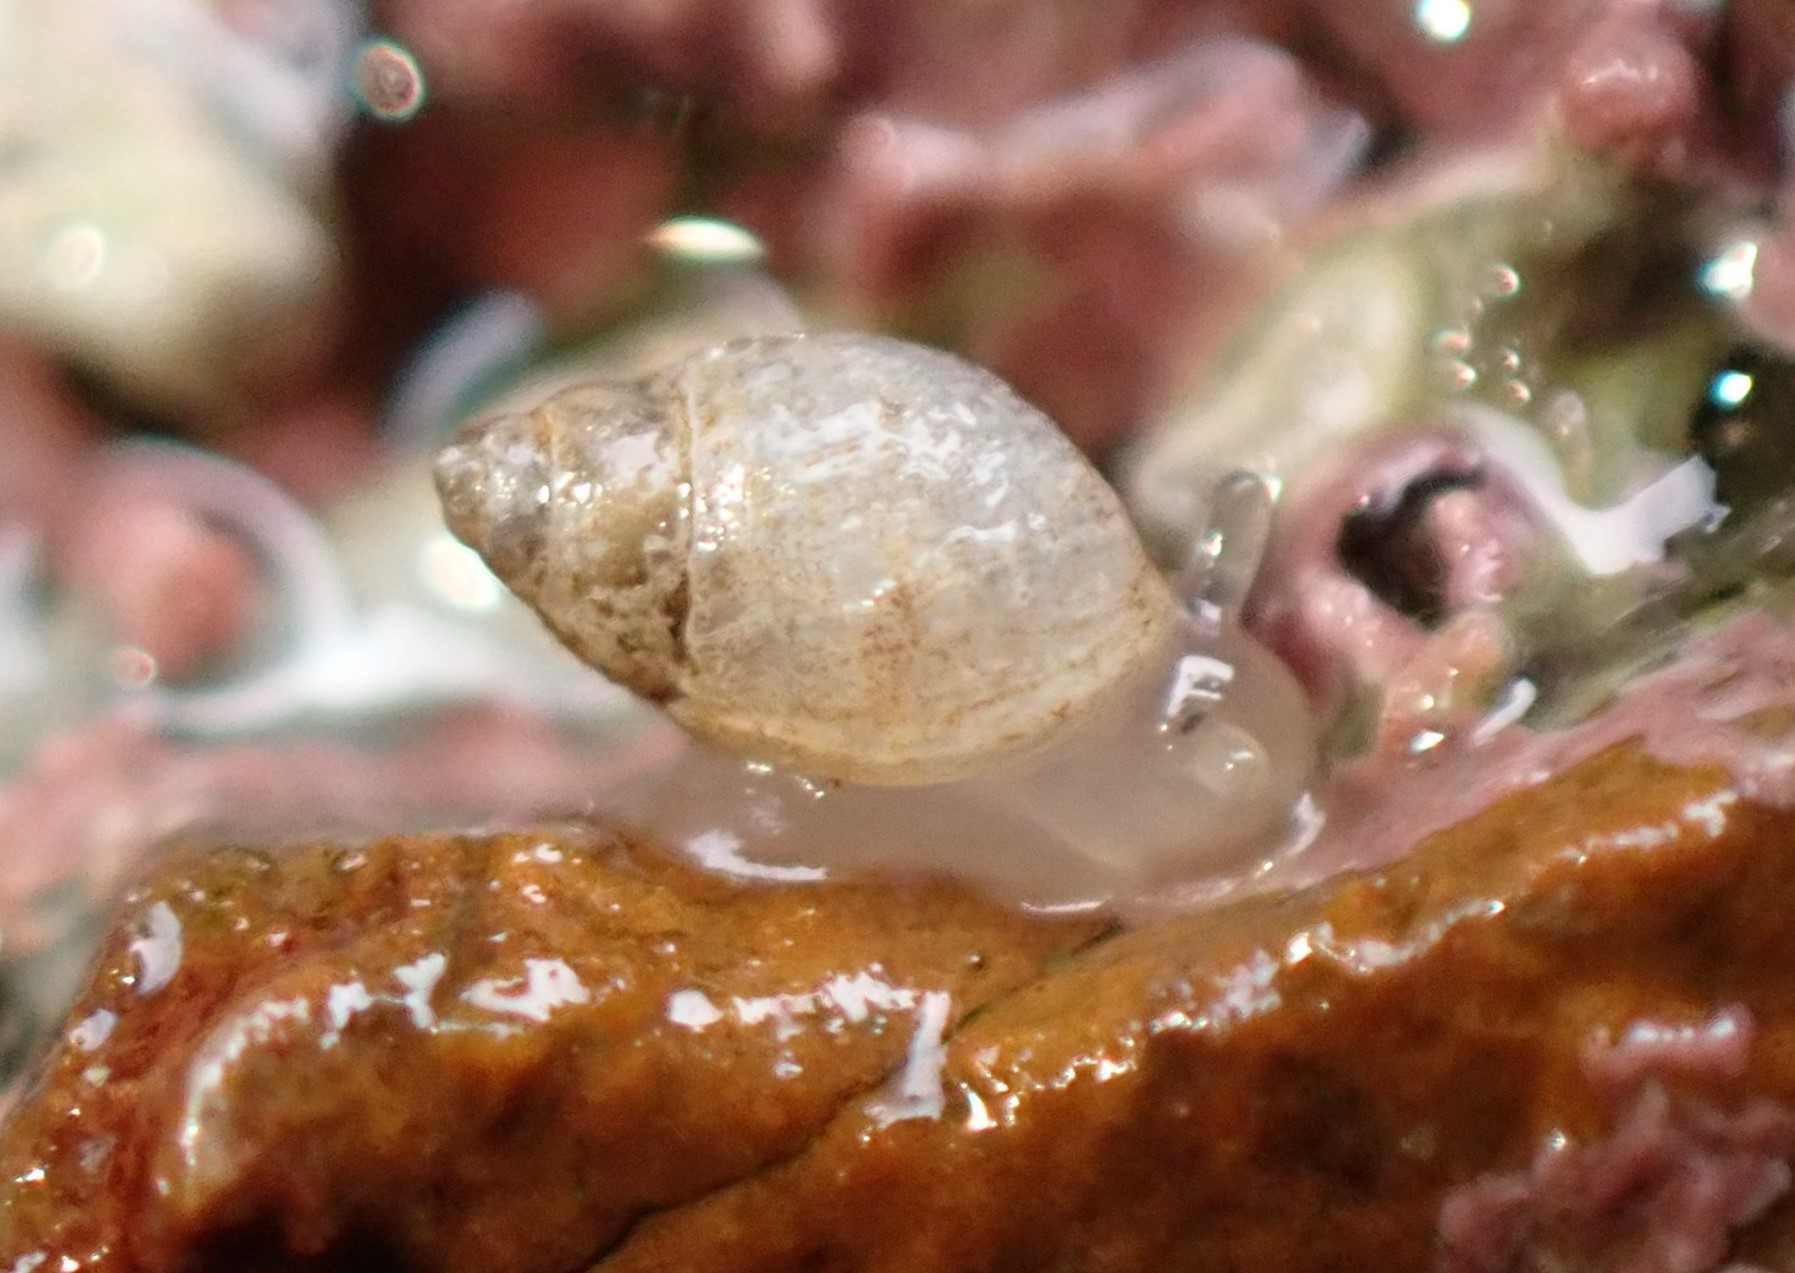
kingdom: Animalia
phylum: Mollusca
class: Gastropoda
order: Ellobiida
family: Ellobiidae
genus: Leuconopsis
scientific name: Leuconopsis obsoleta
